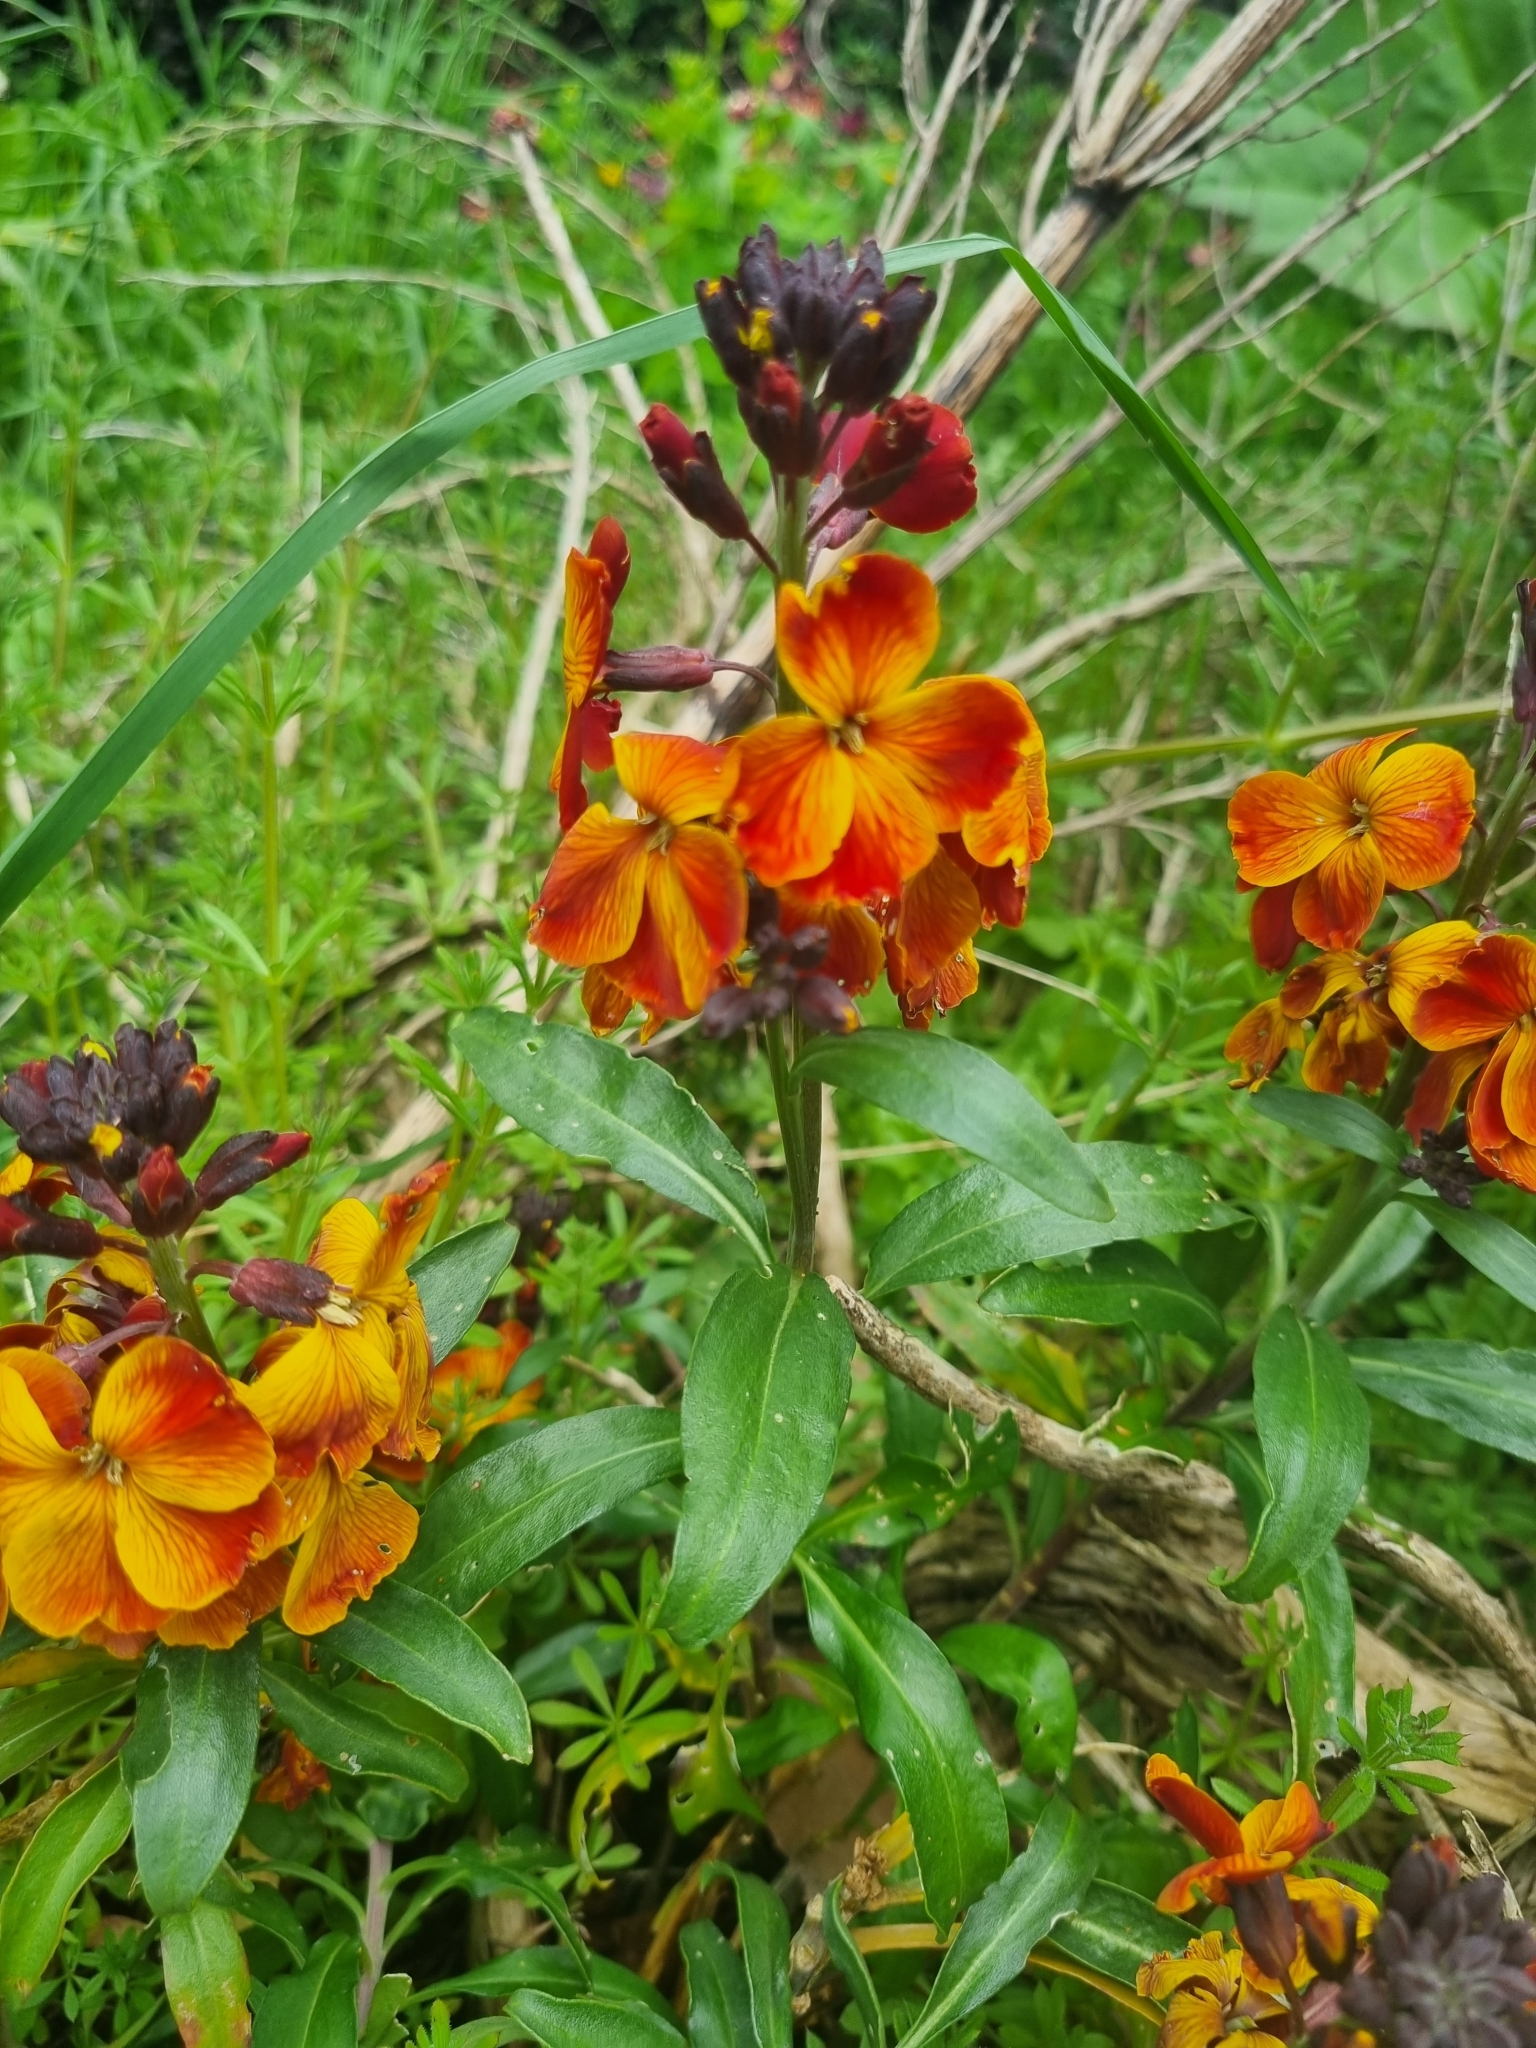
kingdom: Plantae
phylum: Tracheophyta
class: Magnoliopsida
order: Brassicales
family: Brassicaceae
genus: Erysimum
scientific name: Erysimum cheiri
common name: Wallflower
